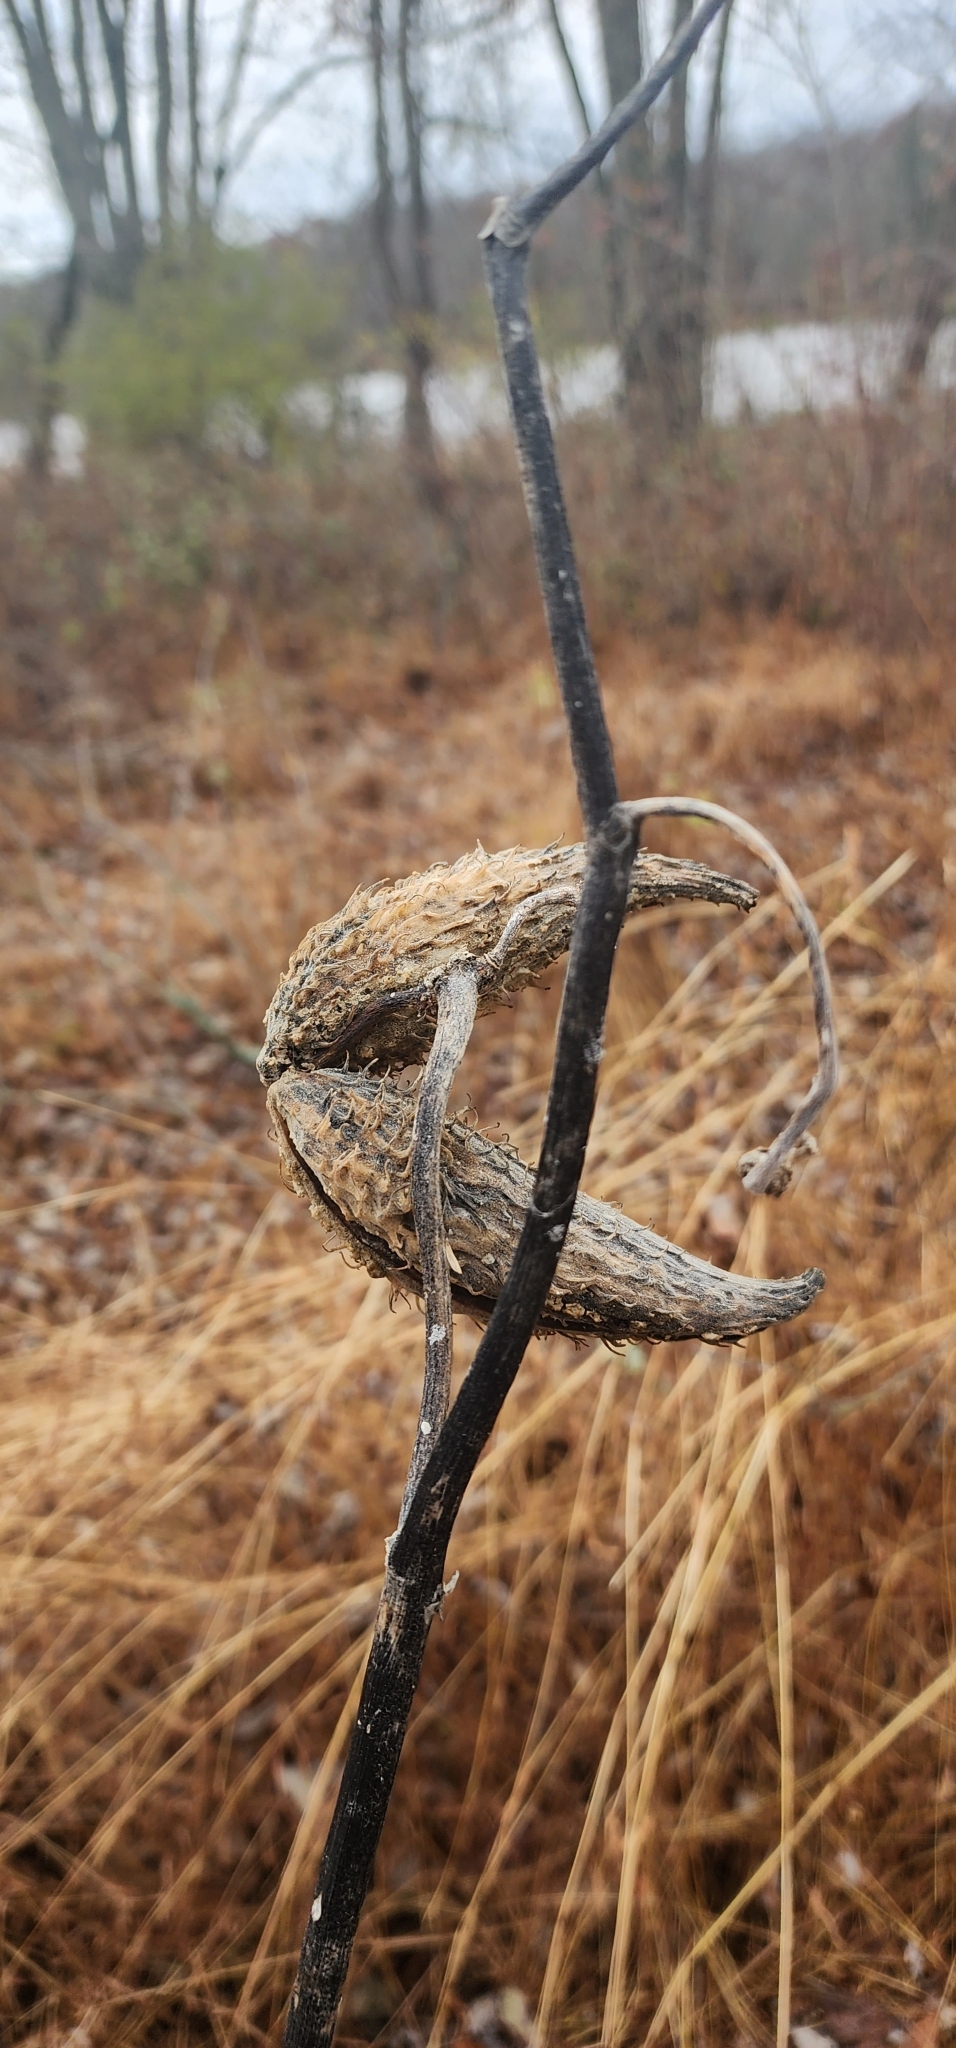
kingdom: Plantae
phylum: Tracheophyta
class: Magnoliopsida
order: Gentianales
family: Apocynaceae
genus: Asclepias
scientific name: Asclepias syriaca
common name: Common milkweed
